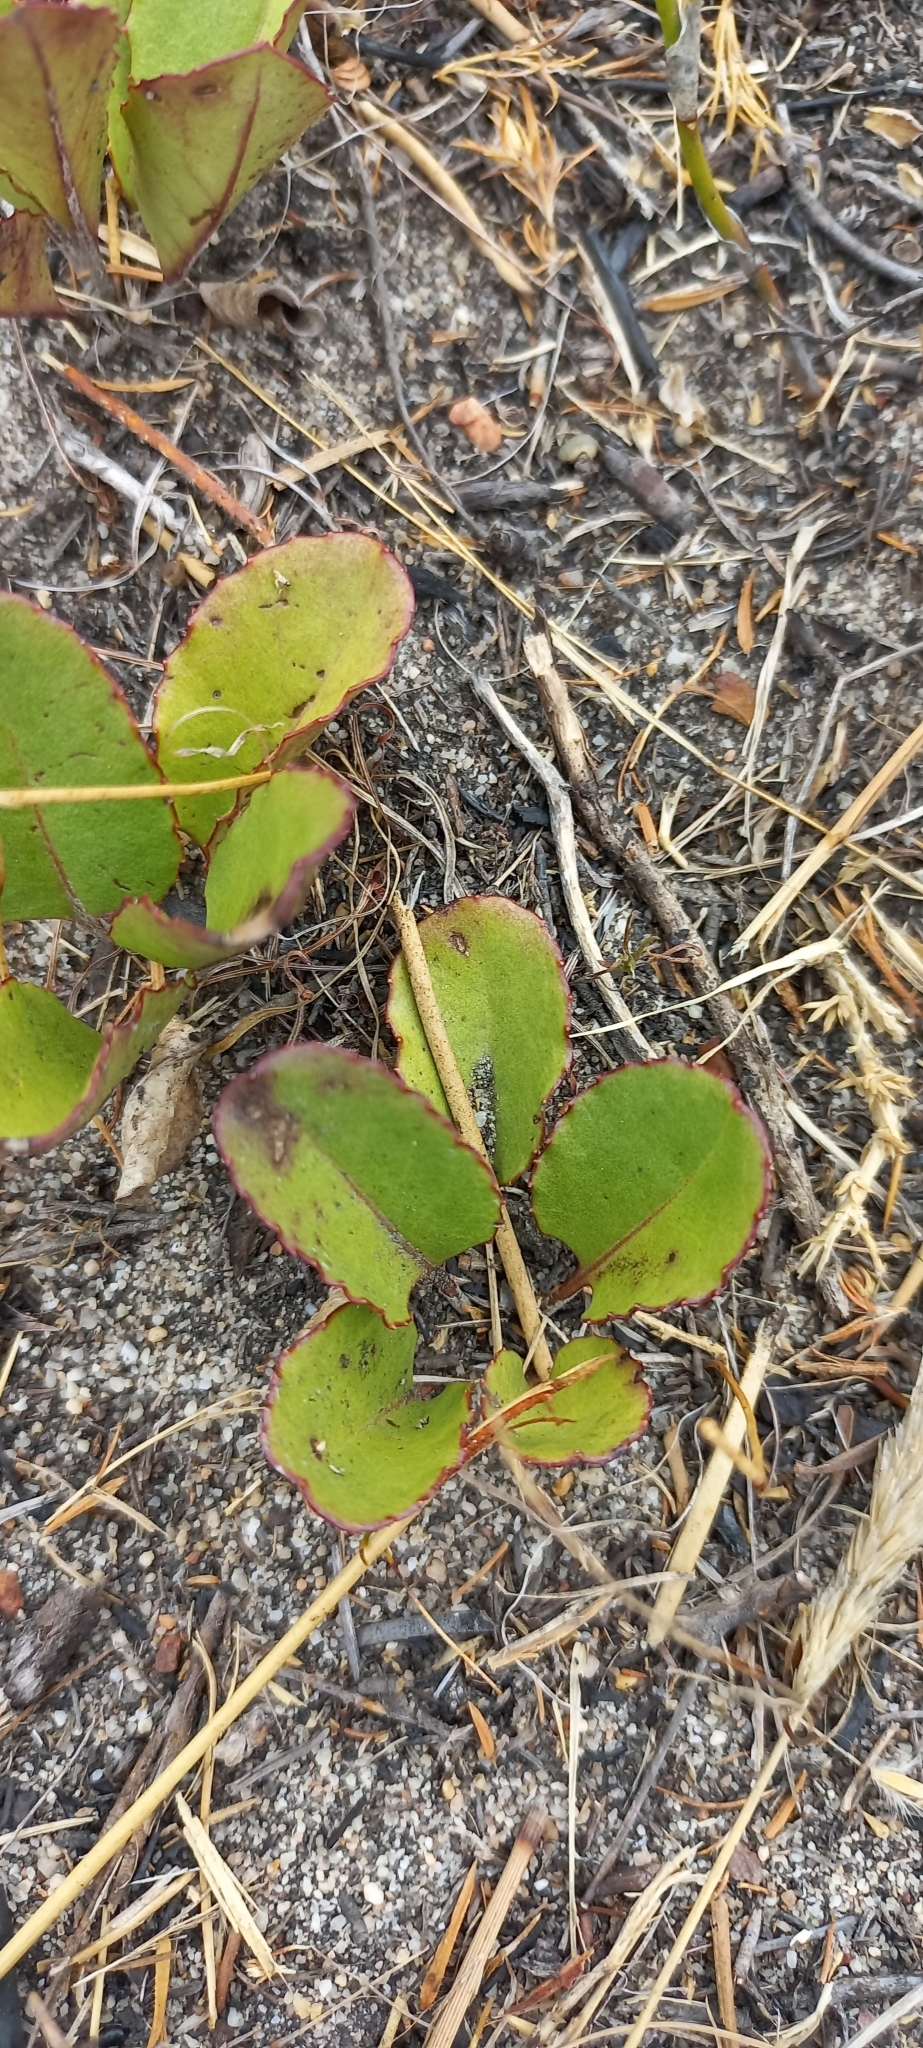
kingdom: Plantae
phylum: Tracheophyta
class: Magnoliopsida
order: Asterales
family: Asteraceae
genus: Gerbera
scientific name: Gerbera crocea
